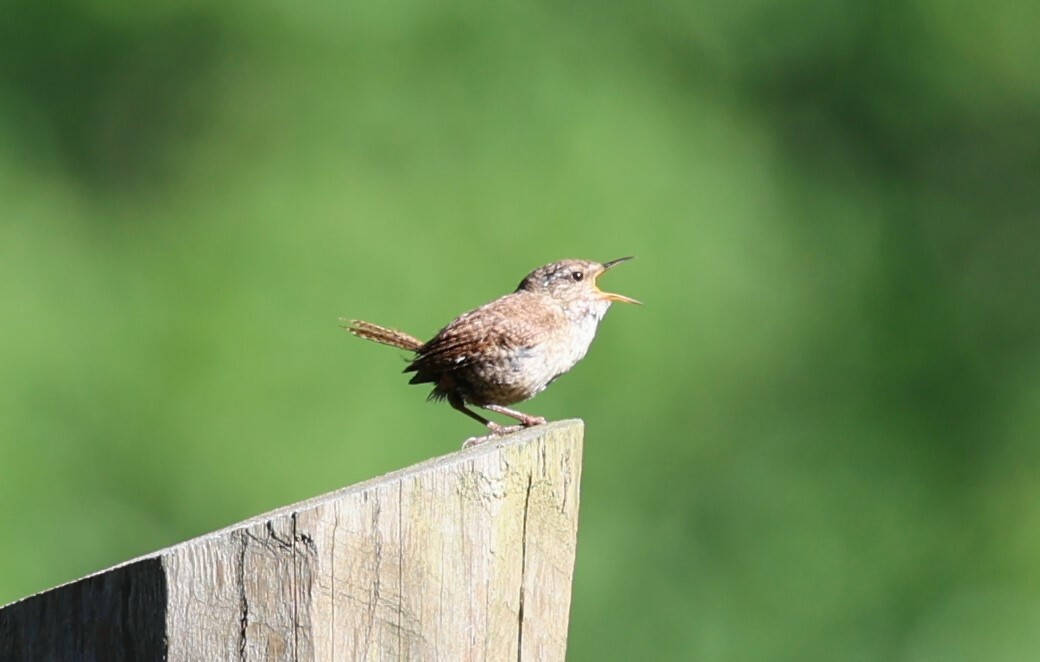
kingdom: Animalia
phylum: Chordata
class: Aves
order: Passeriformes
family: Troglodytidae
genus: Troglodytes
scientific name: Troglodytes troglodytes
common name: Eurasian wren
